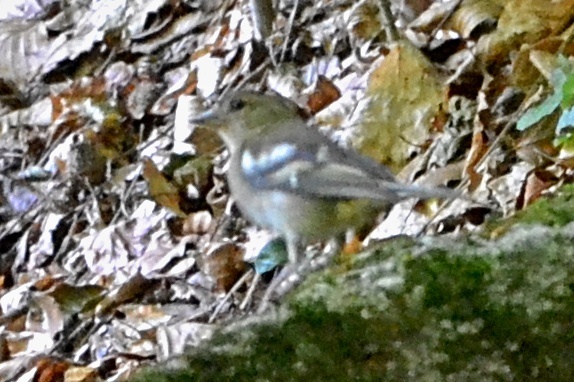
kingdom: Animalia
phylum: Chordata
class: Aves
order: Passeriformes
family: Fringillidae
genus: Fringilla
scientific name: Fringilla coelebs
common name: Common chaffinch
